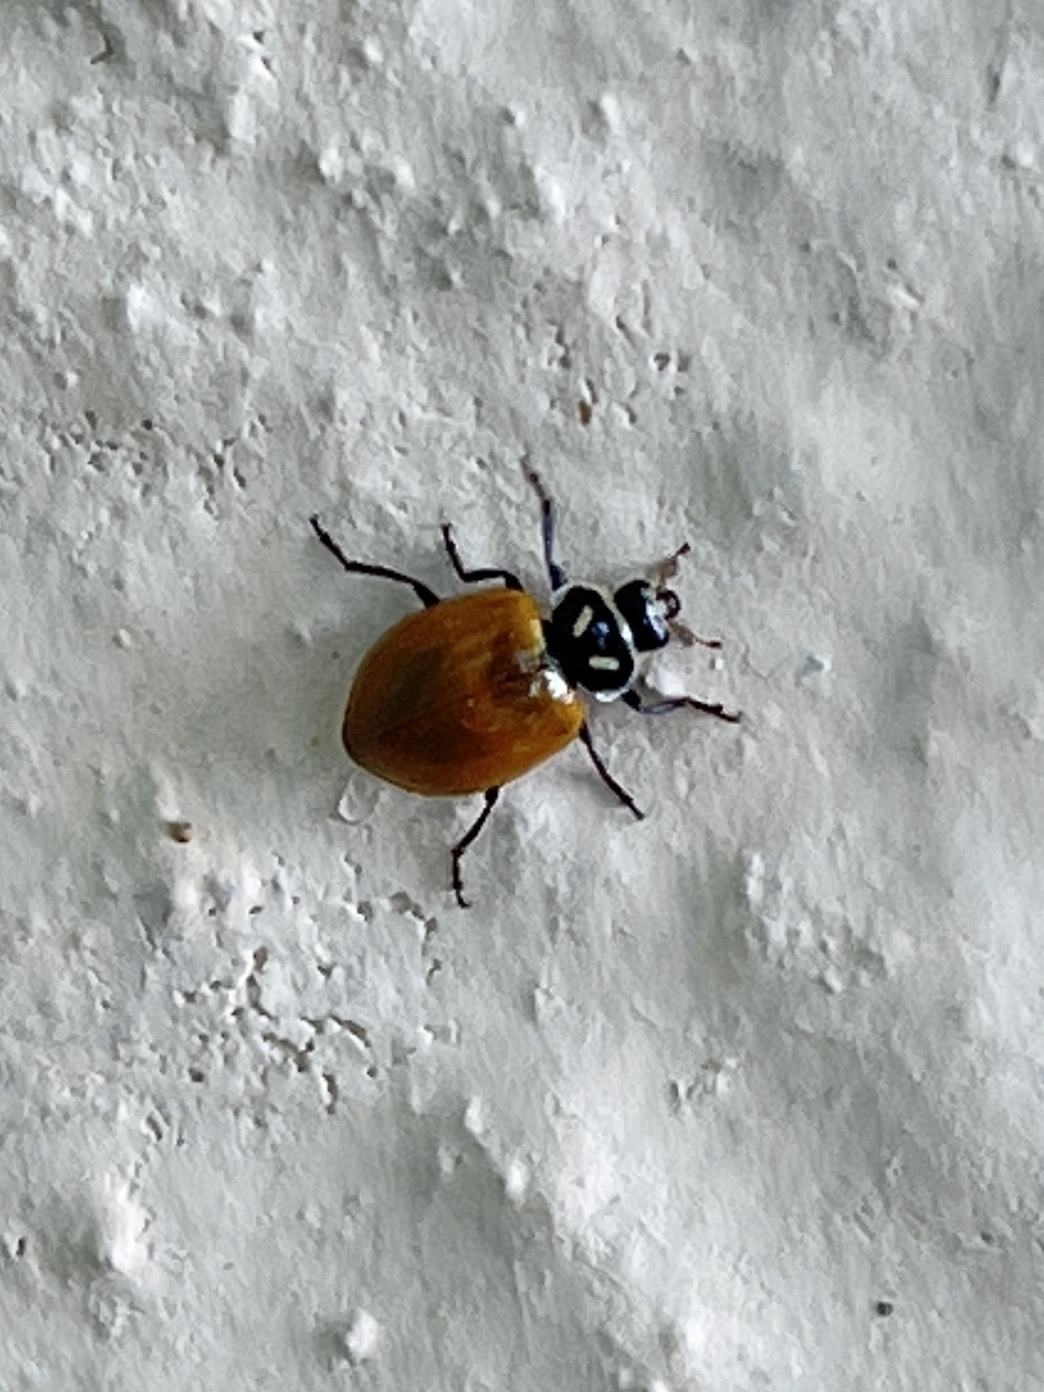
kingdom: Animalia
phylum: Arthropoda
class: Insecta
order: Coleoptera
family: Coccinellidae
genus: Hippodamia
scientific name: Hippodamia convergens
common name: Convergent lady beetle
